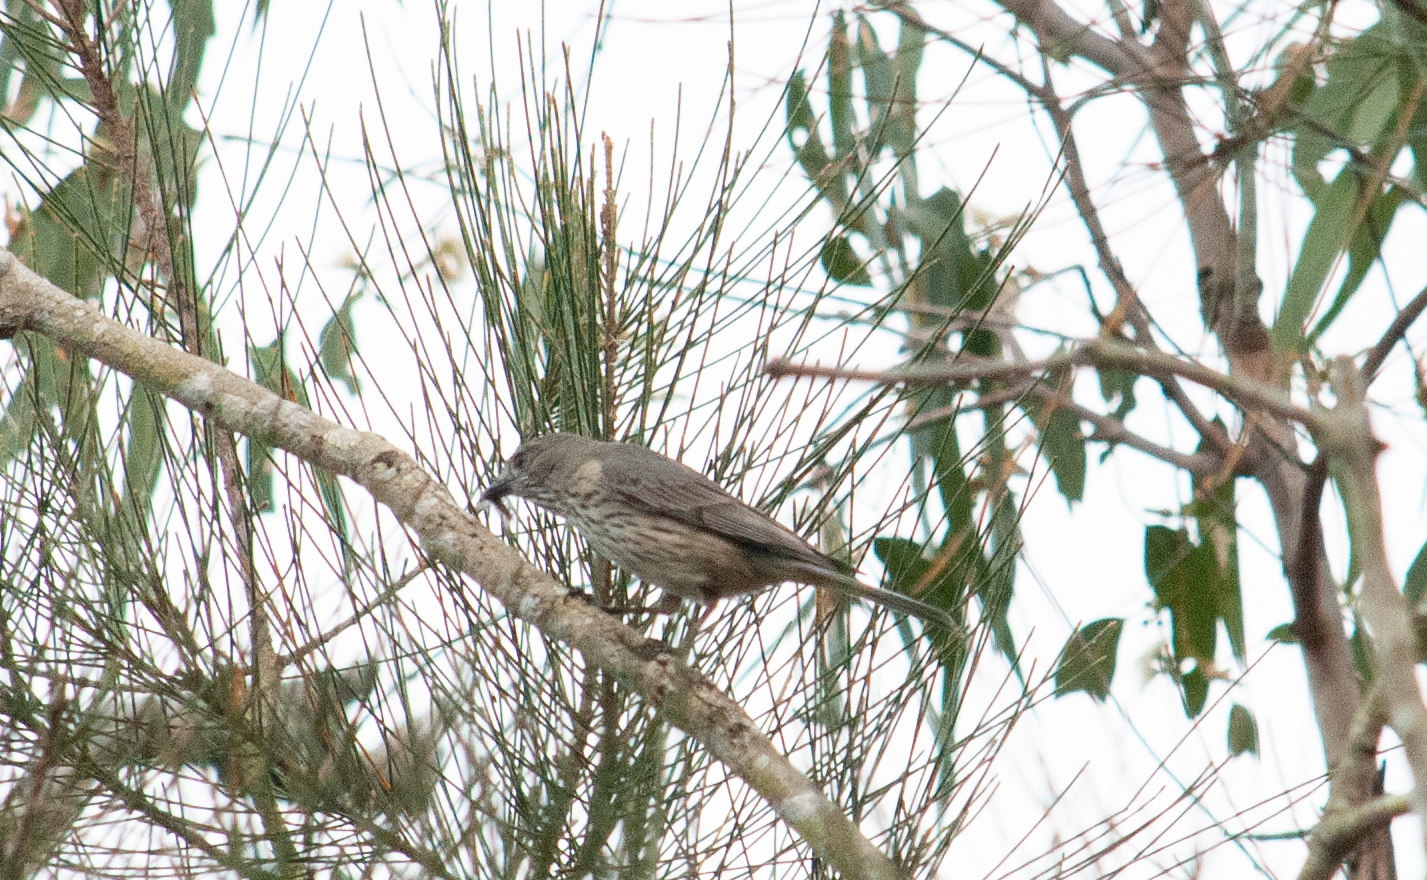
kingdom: Animalia
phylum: Chordata
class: Aves
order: Passeriformes
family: Pachycephalidae
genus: Pachycephala
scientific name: Pachycephala rufiventris
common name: Rufous whistler
